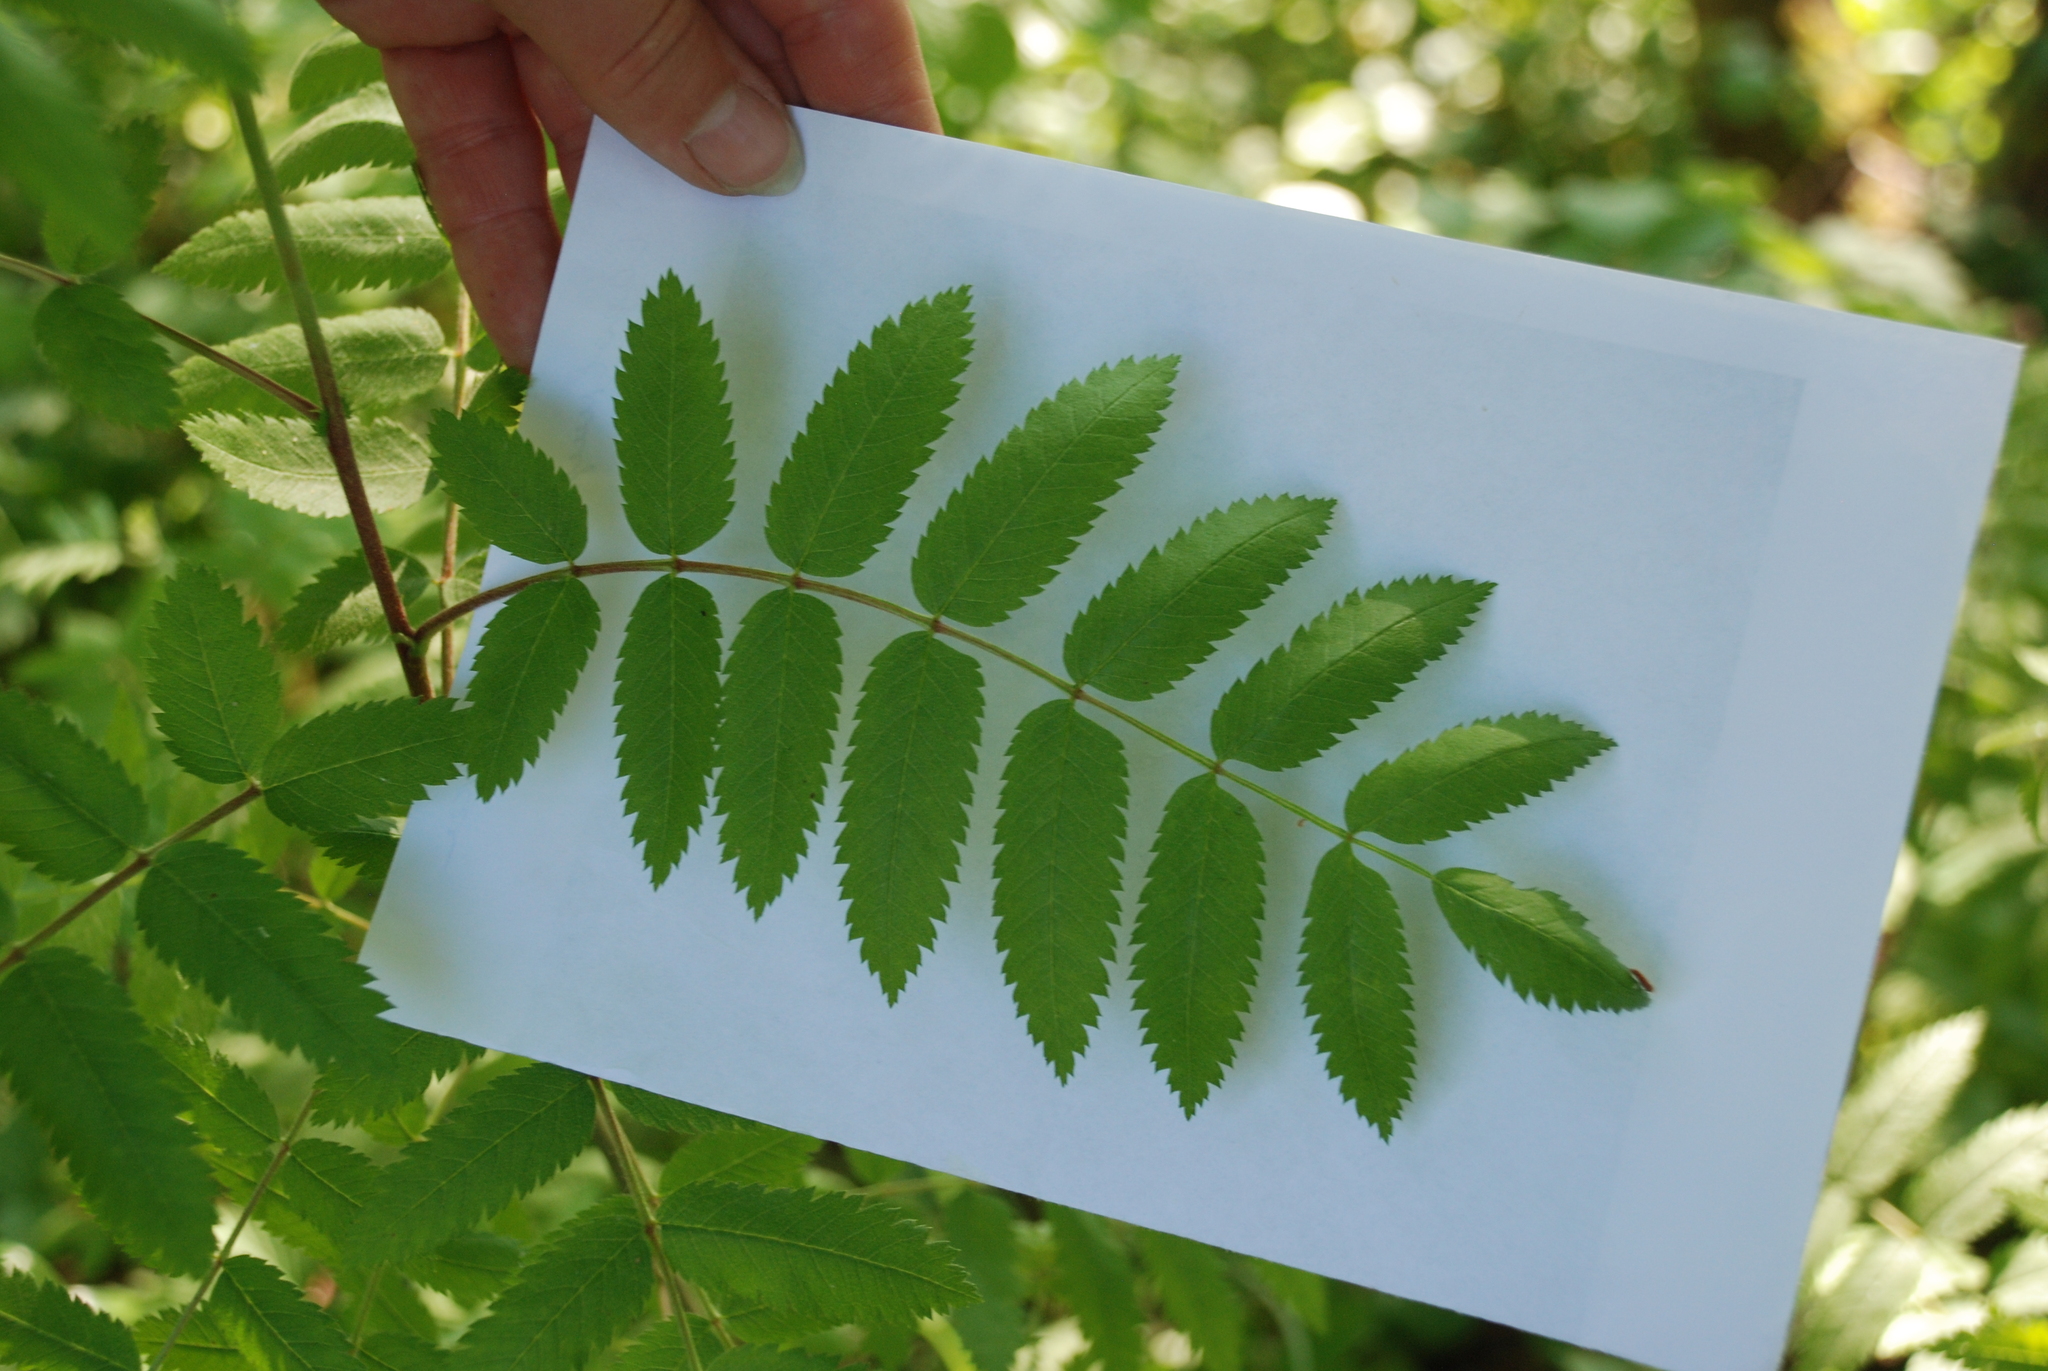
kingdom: Plantae
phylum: Tracheophyta
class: Magnoliopsida
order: Rosales
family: Rosaceae
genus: Sorbus
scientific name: Sorbus aucuparia
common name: Rowan
